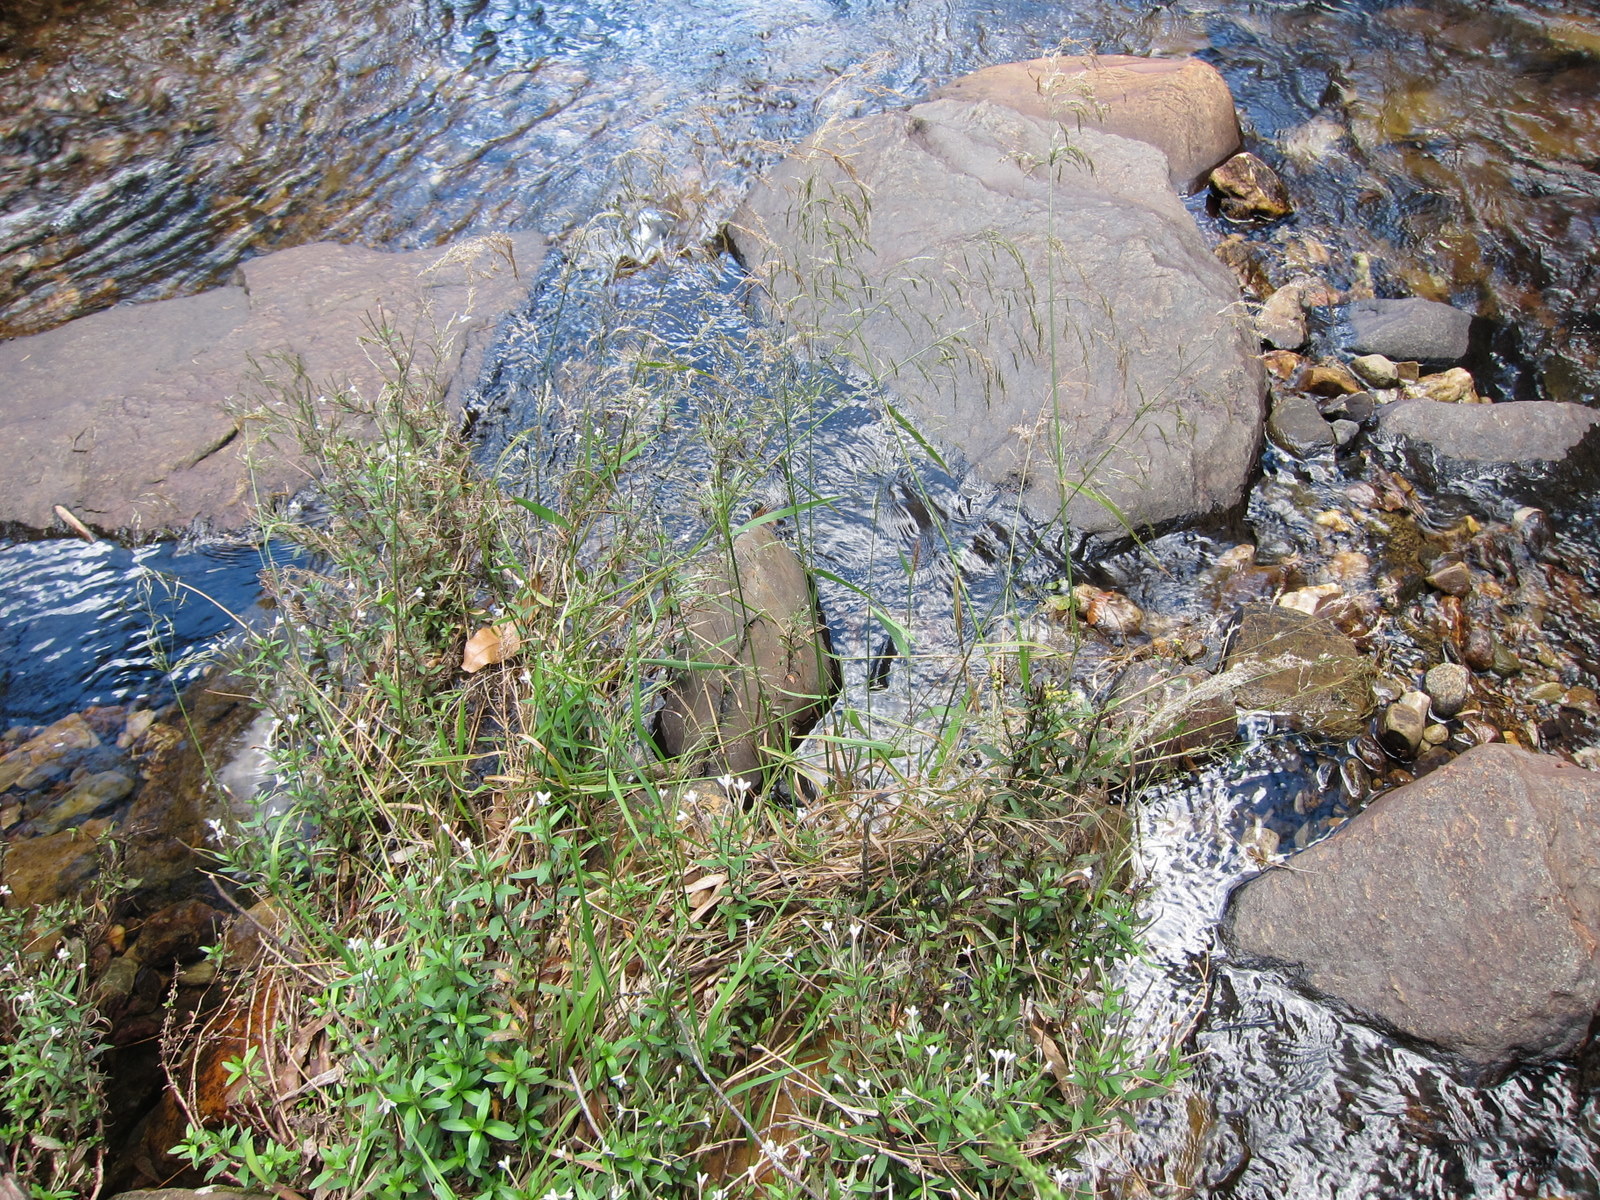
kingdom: Plantae
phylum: Tracheophyta
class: Liliopsida
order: Poales
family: Poaceae
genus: Agrostis
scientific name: Agrostis emirnensis
